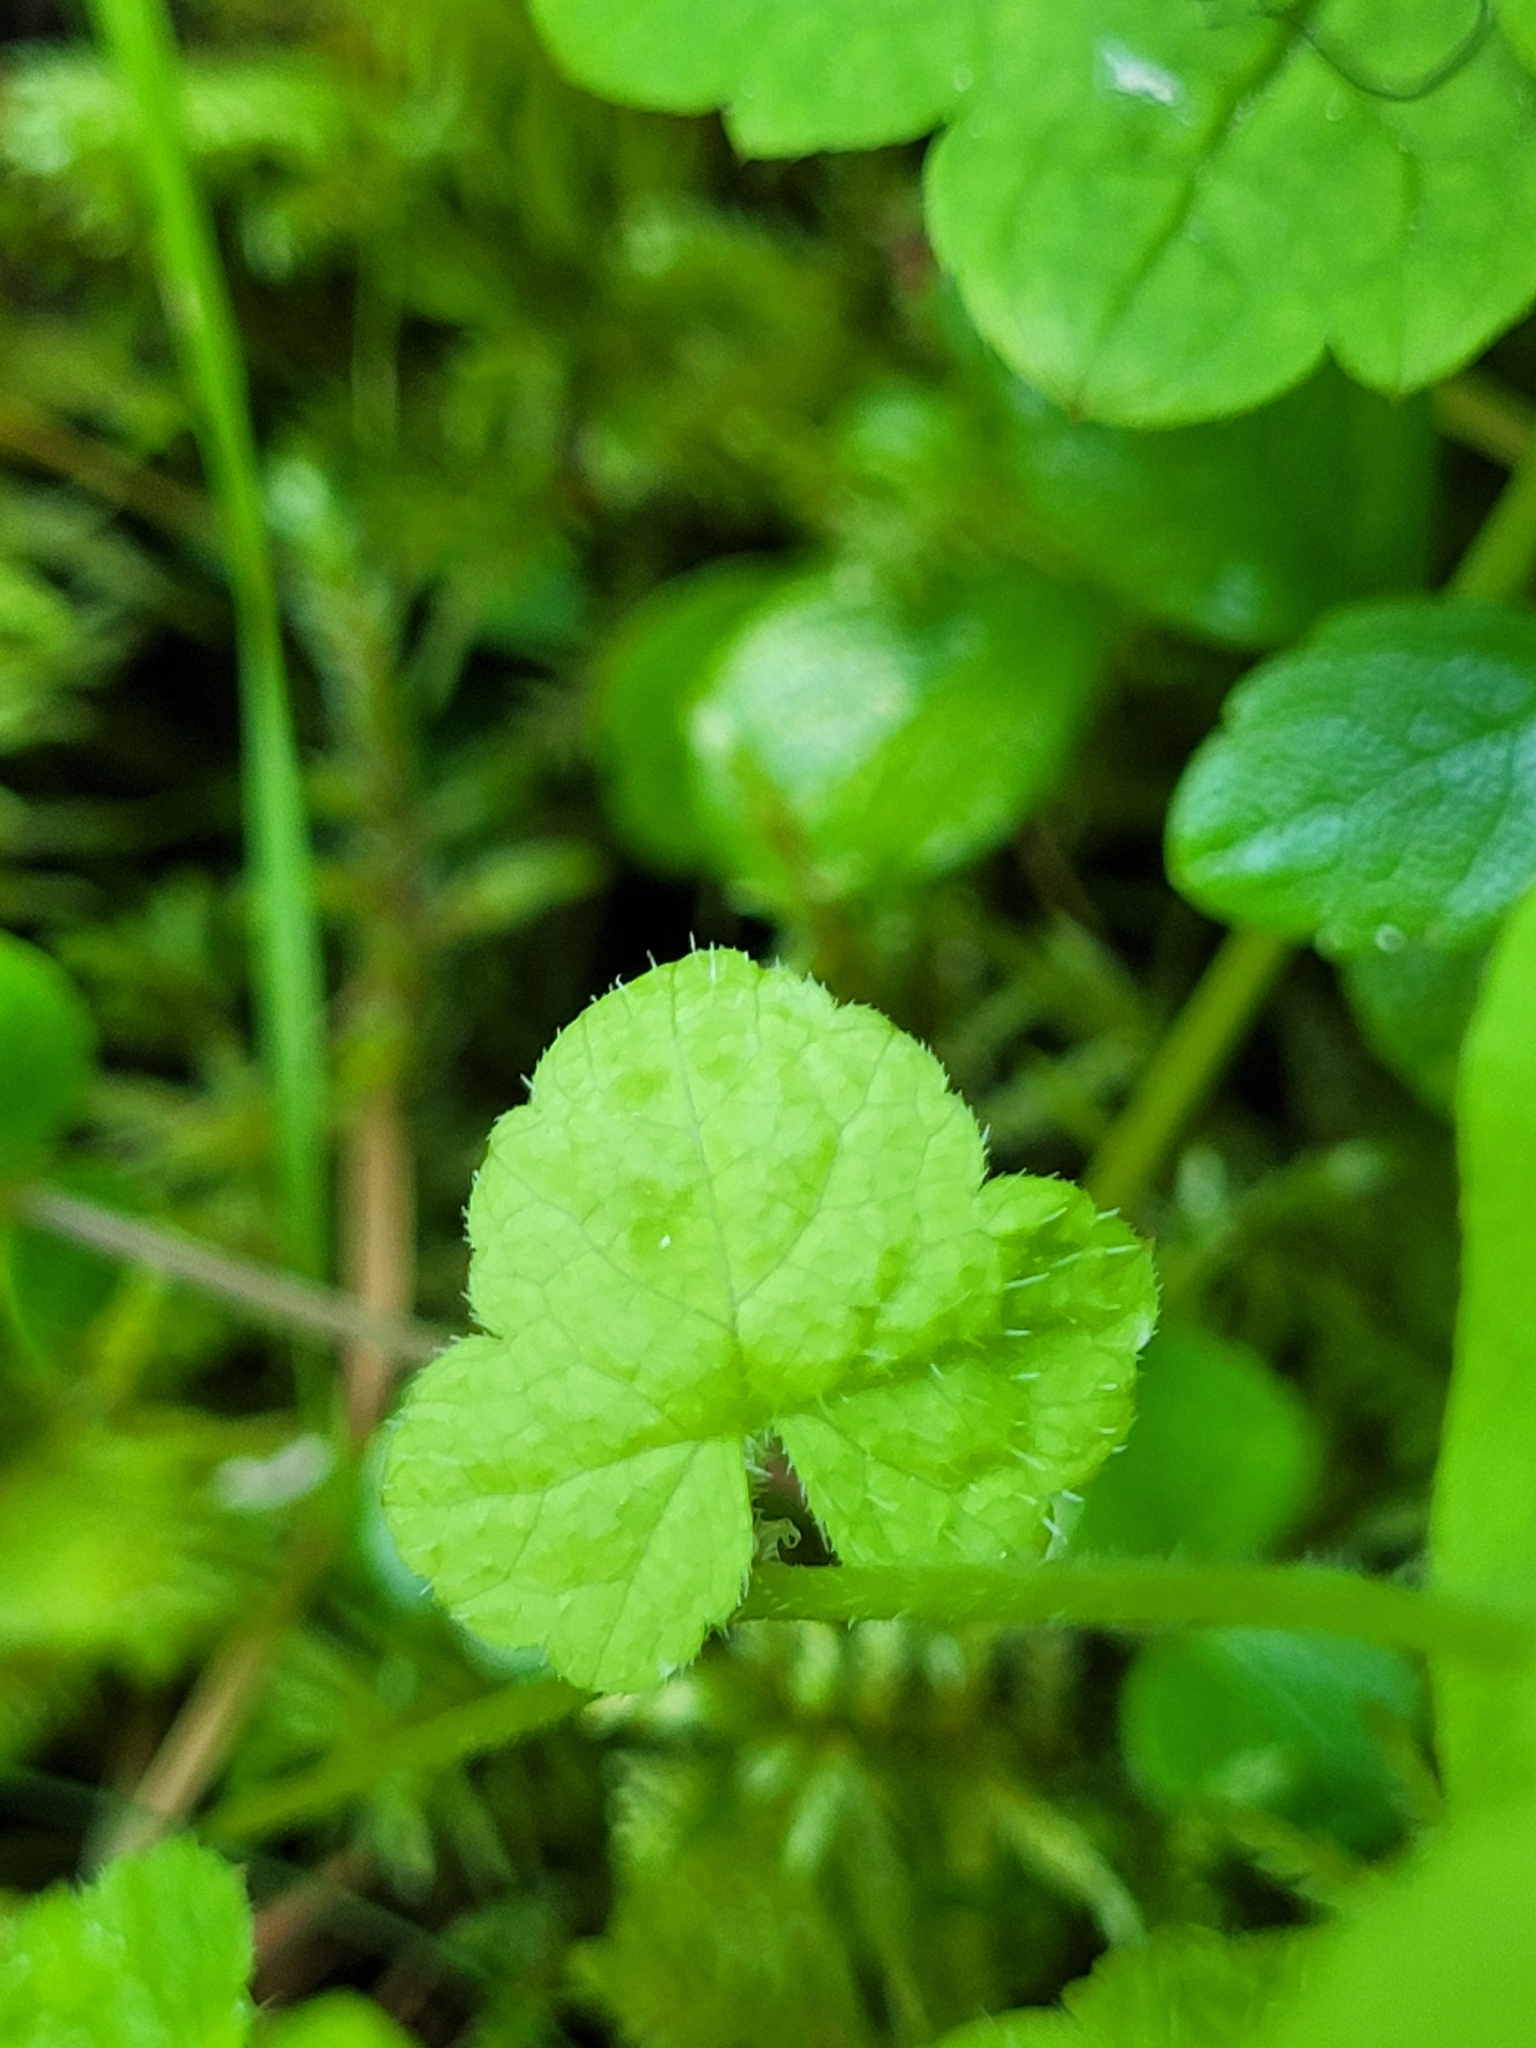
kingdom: Plantae
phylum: Tracheophyta
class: Magnoliopsida
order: Saxifragales
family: Saxifragaceae
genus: Tiarella
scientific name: Tiarella trifoliata
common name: Sugar-scoop
